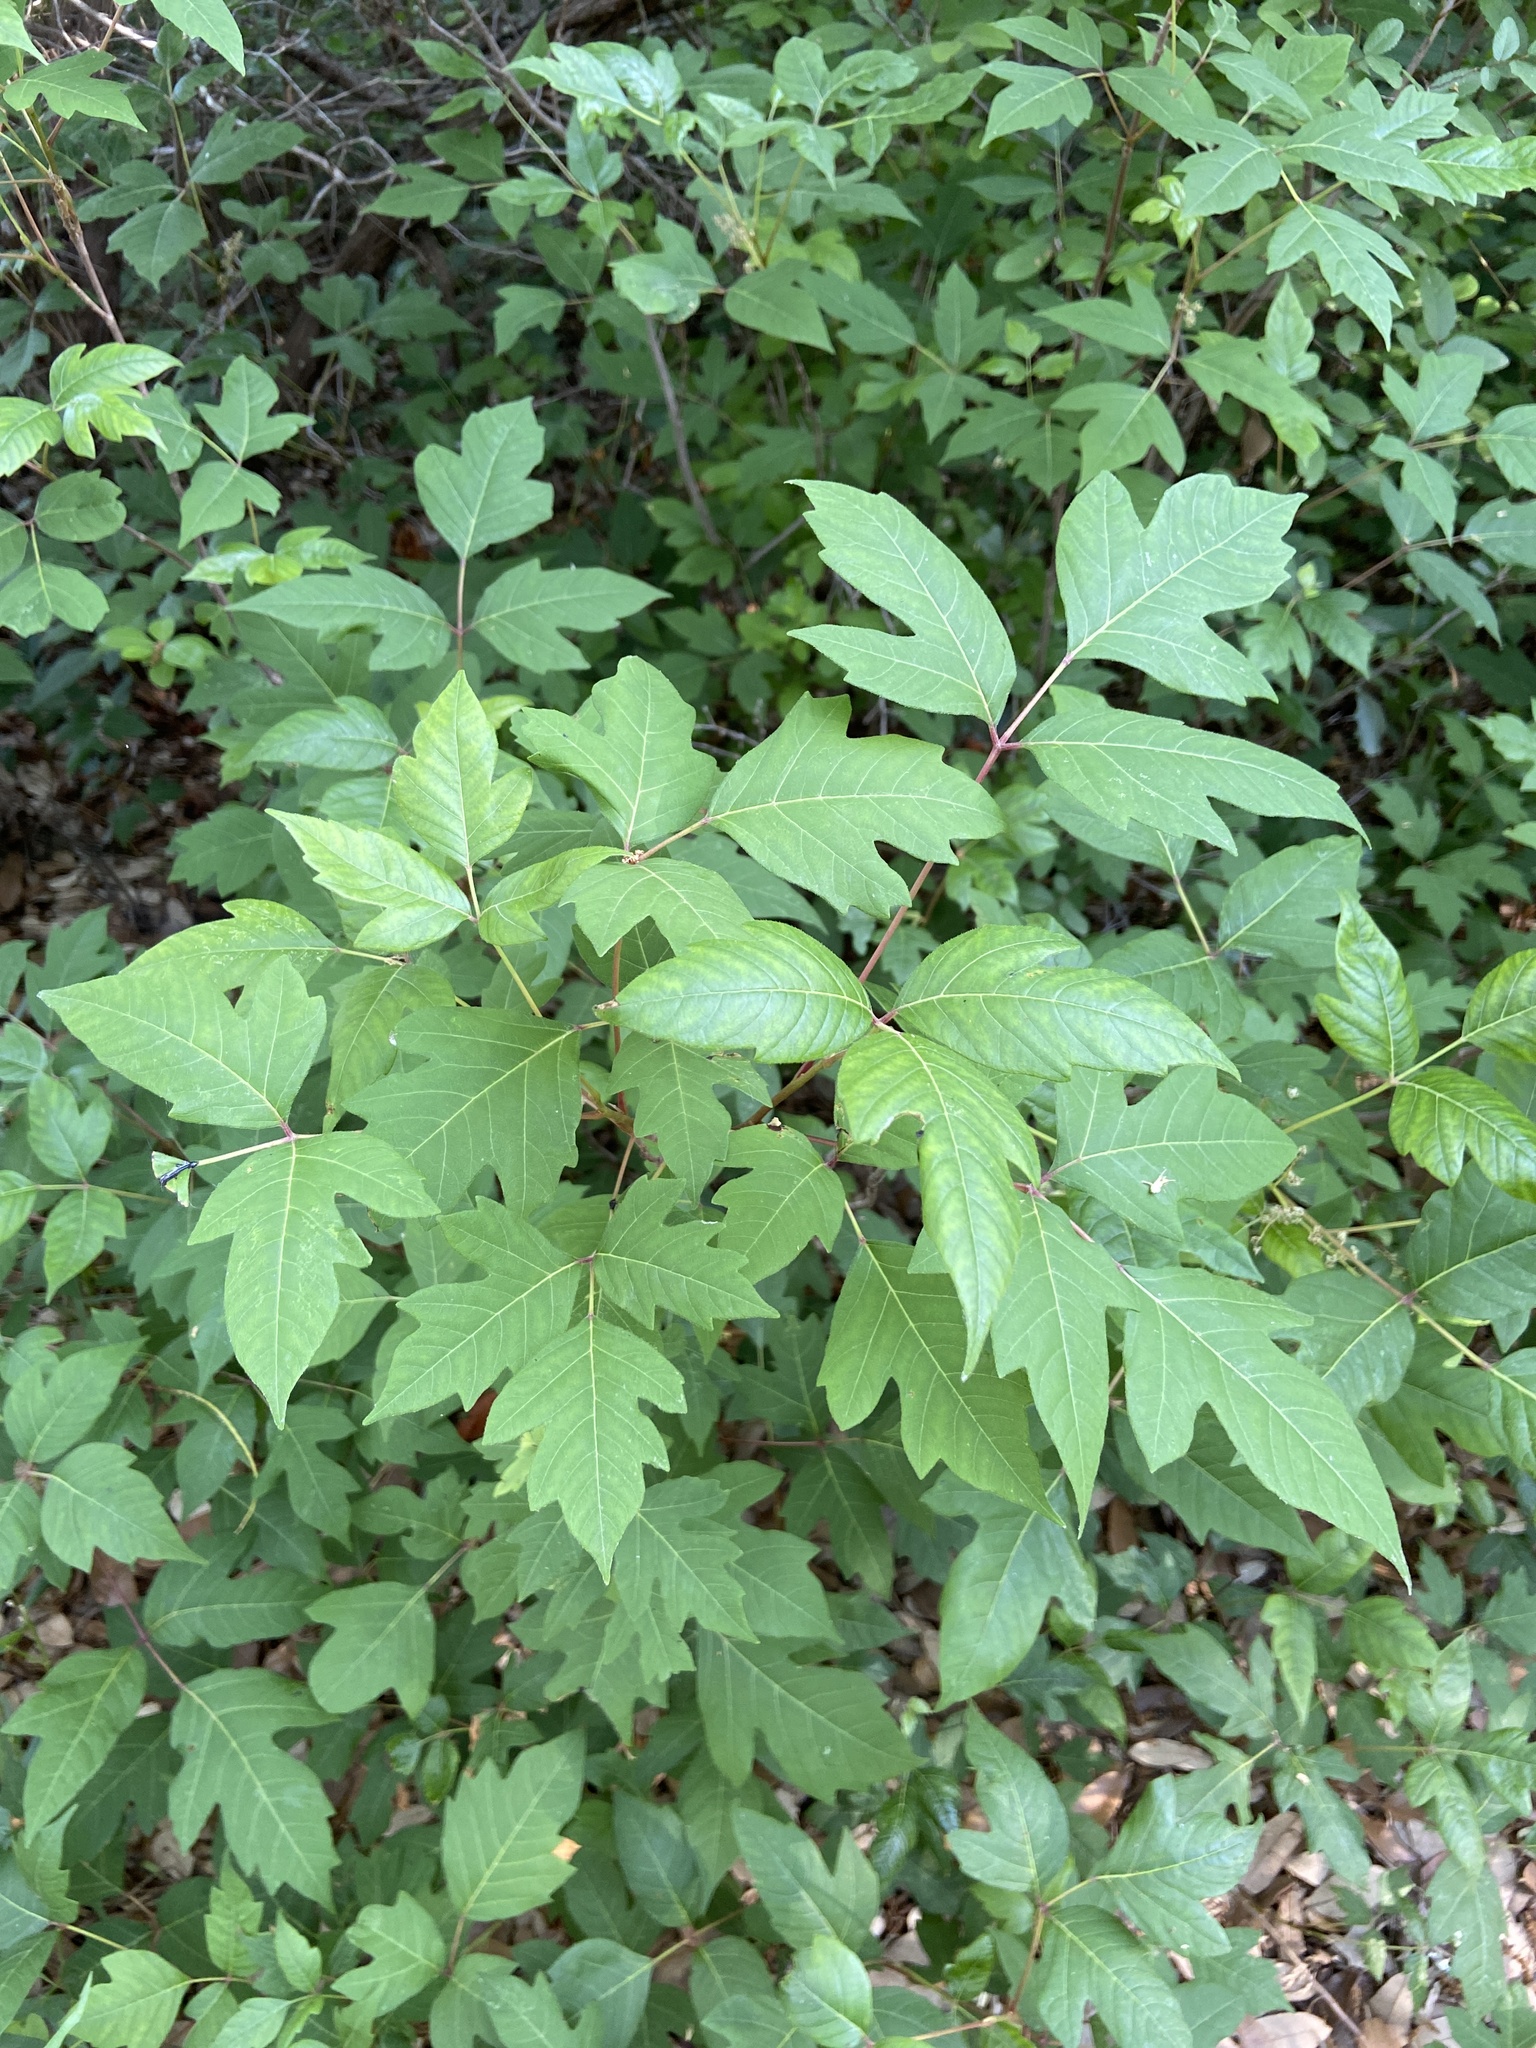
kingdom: Plantae
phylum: Tracheophyta
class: Magnoliopsida
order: Sapindales
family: Anacardiaceae
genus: Toxicodendron
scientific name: Toxicodendron radicans
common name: Poison ivy
